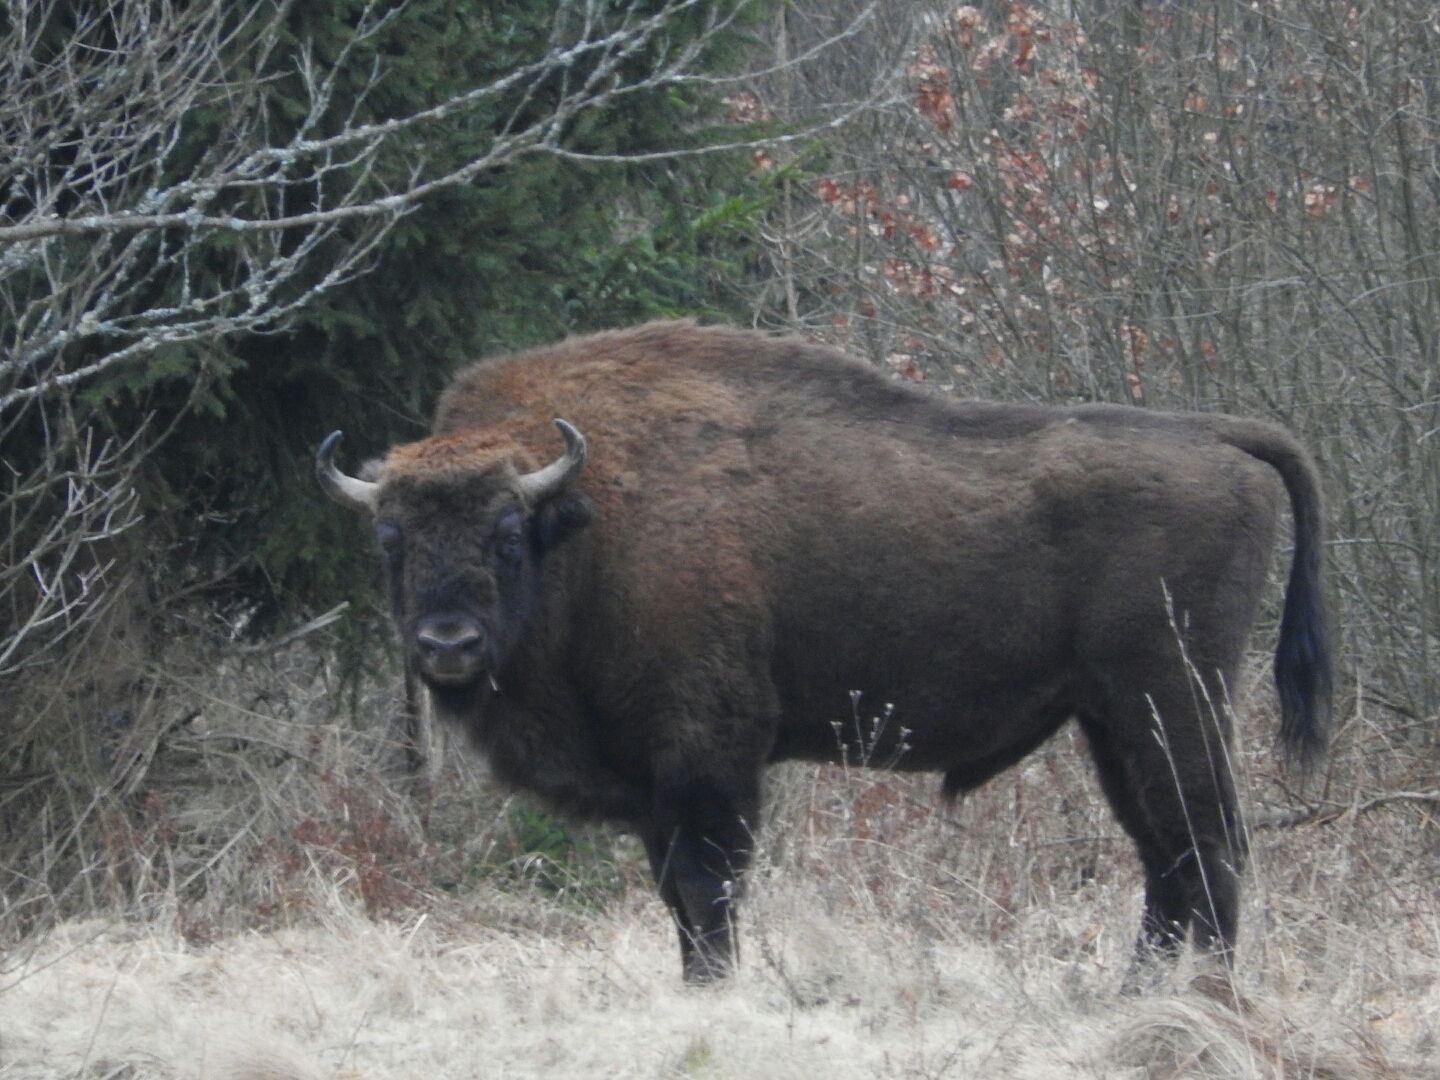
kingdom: Animalia
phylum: Chordata
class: Mammalia
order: Artiodactyla
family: Bovidae
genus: Bison
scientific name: Bison bonasus
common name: European bison
